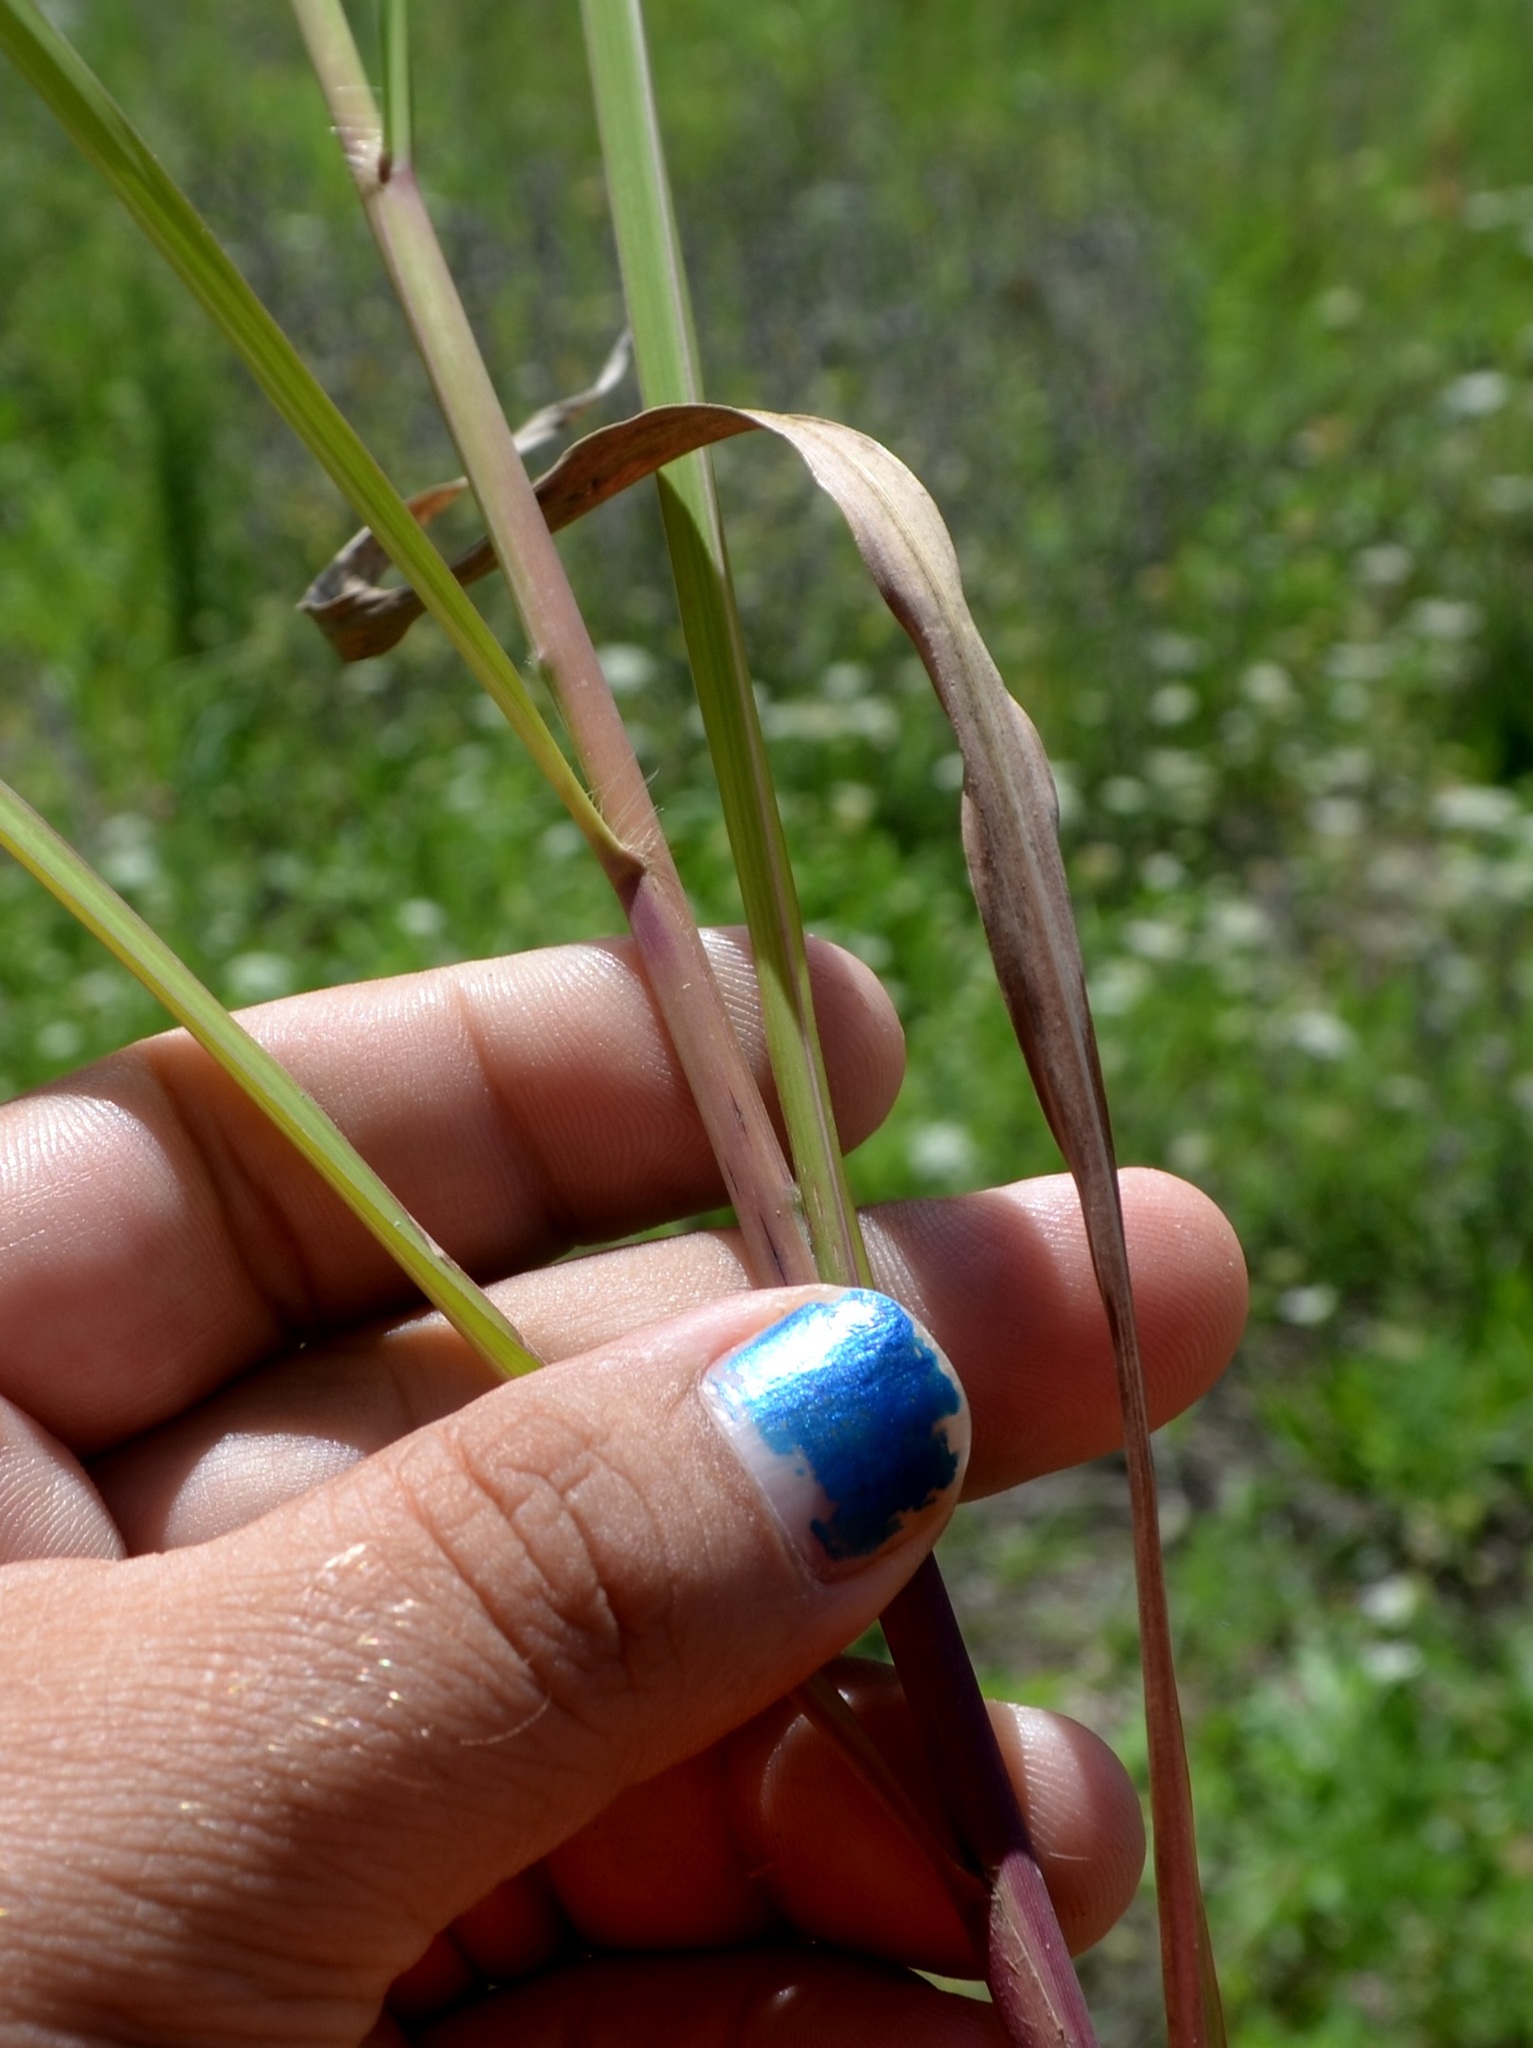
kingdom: Plantae
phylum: Tracheophyta
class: Liliopsida
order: Poales
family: Poaceae
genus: Miscanthus
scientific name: Miscanthus sacchariflorus
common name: Amur silver grass
